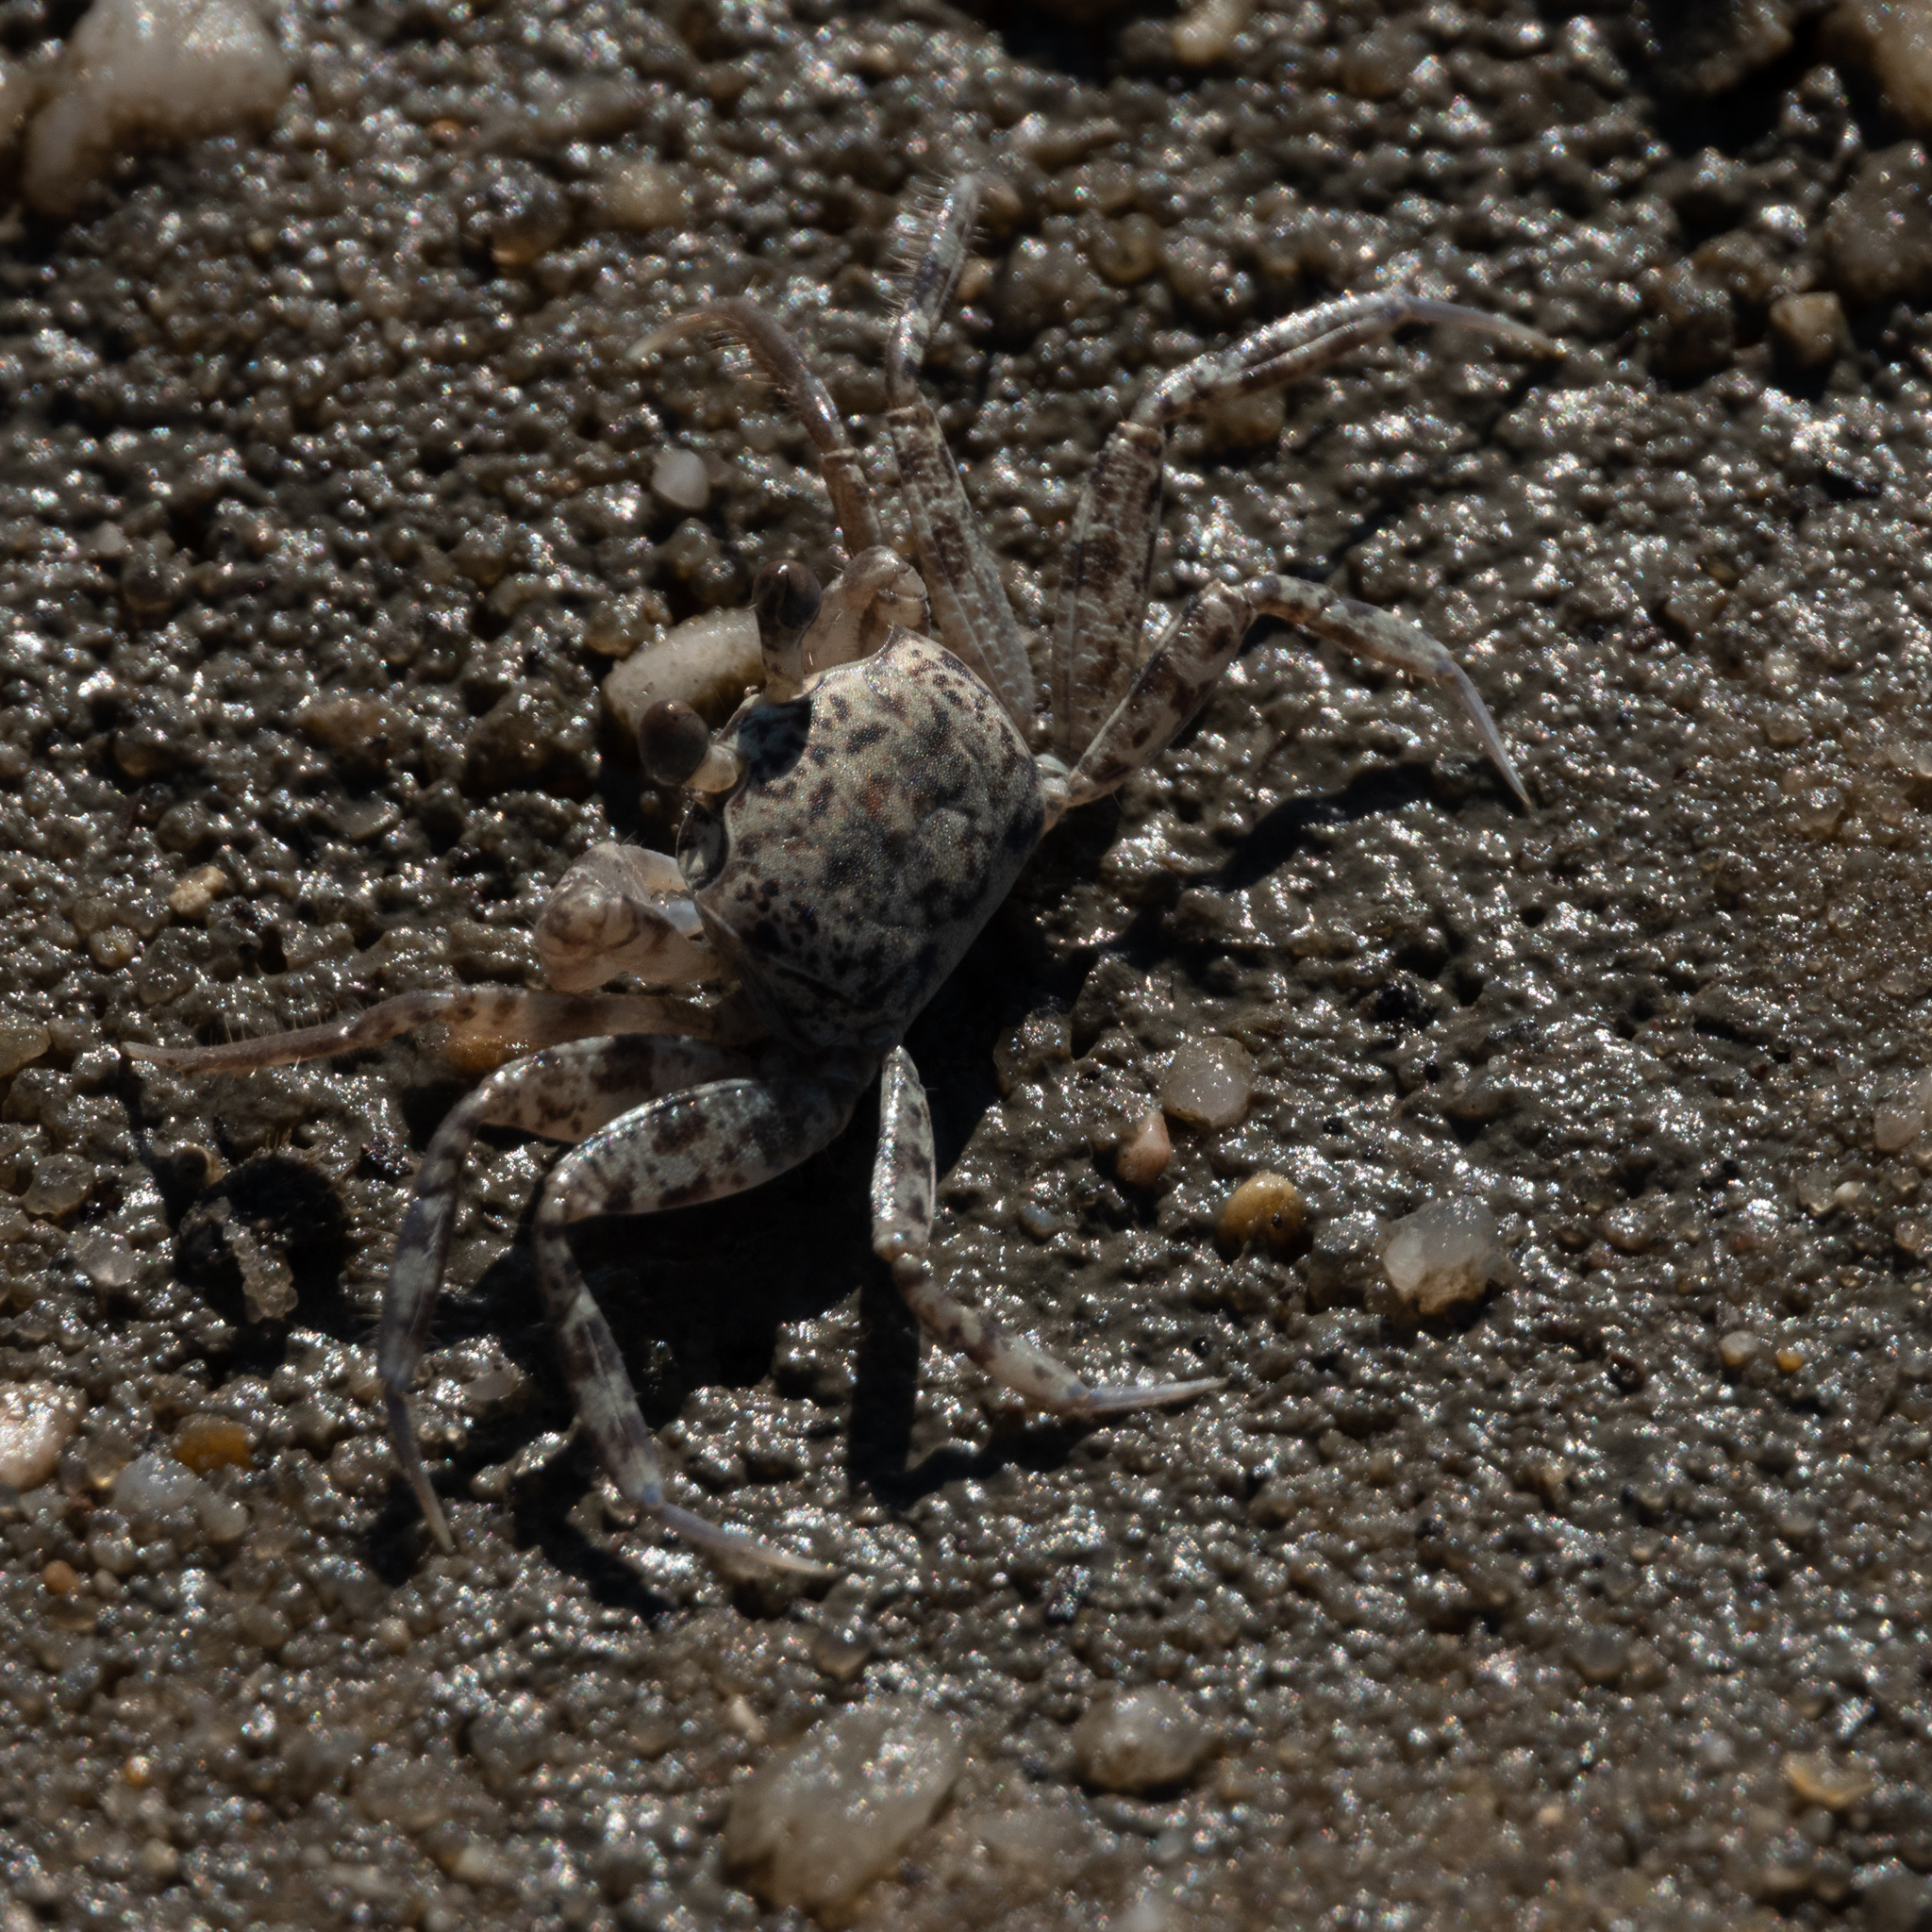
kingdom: Animalia
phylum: Arthropoda
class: Malacostraca
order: Decapoda
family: Ocypodidae
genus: Ocypode
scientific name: Ocypode quadrata
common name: Ghost crab
